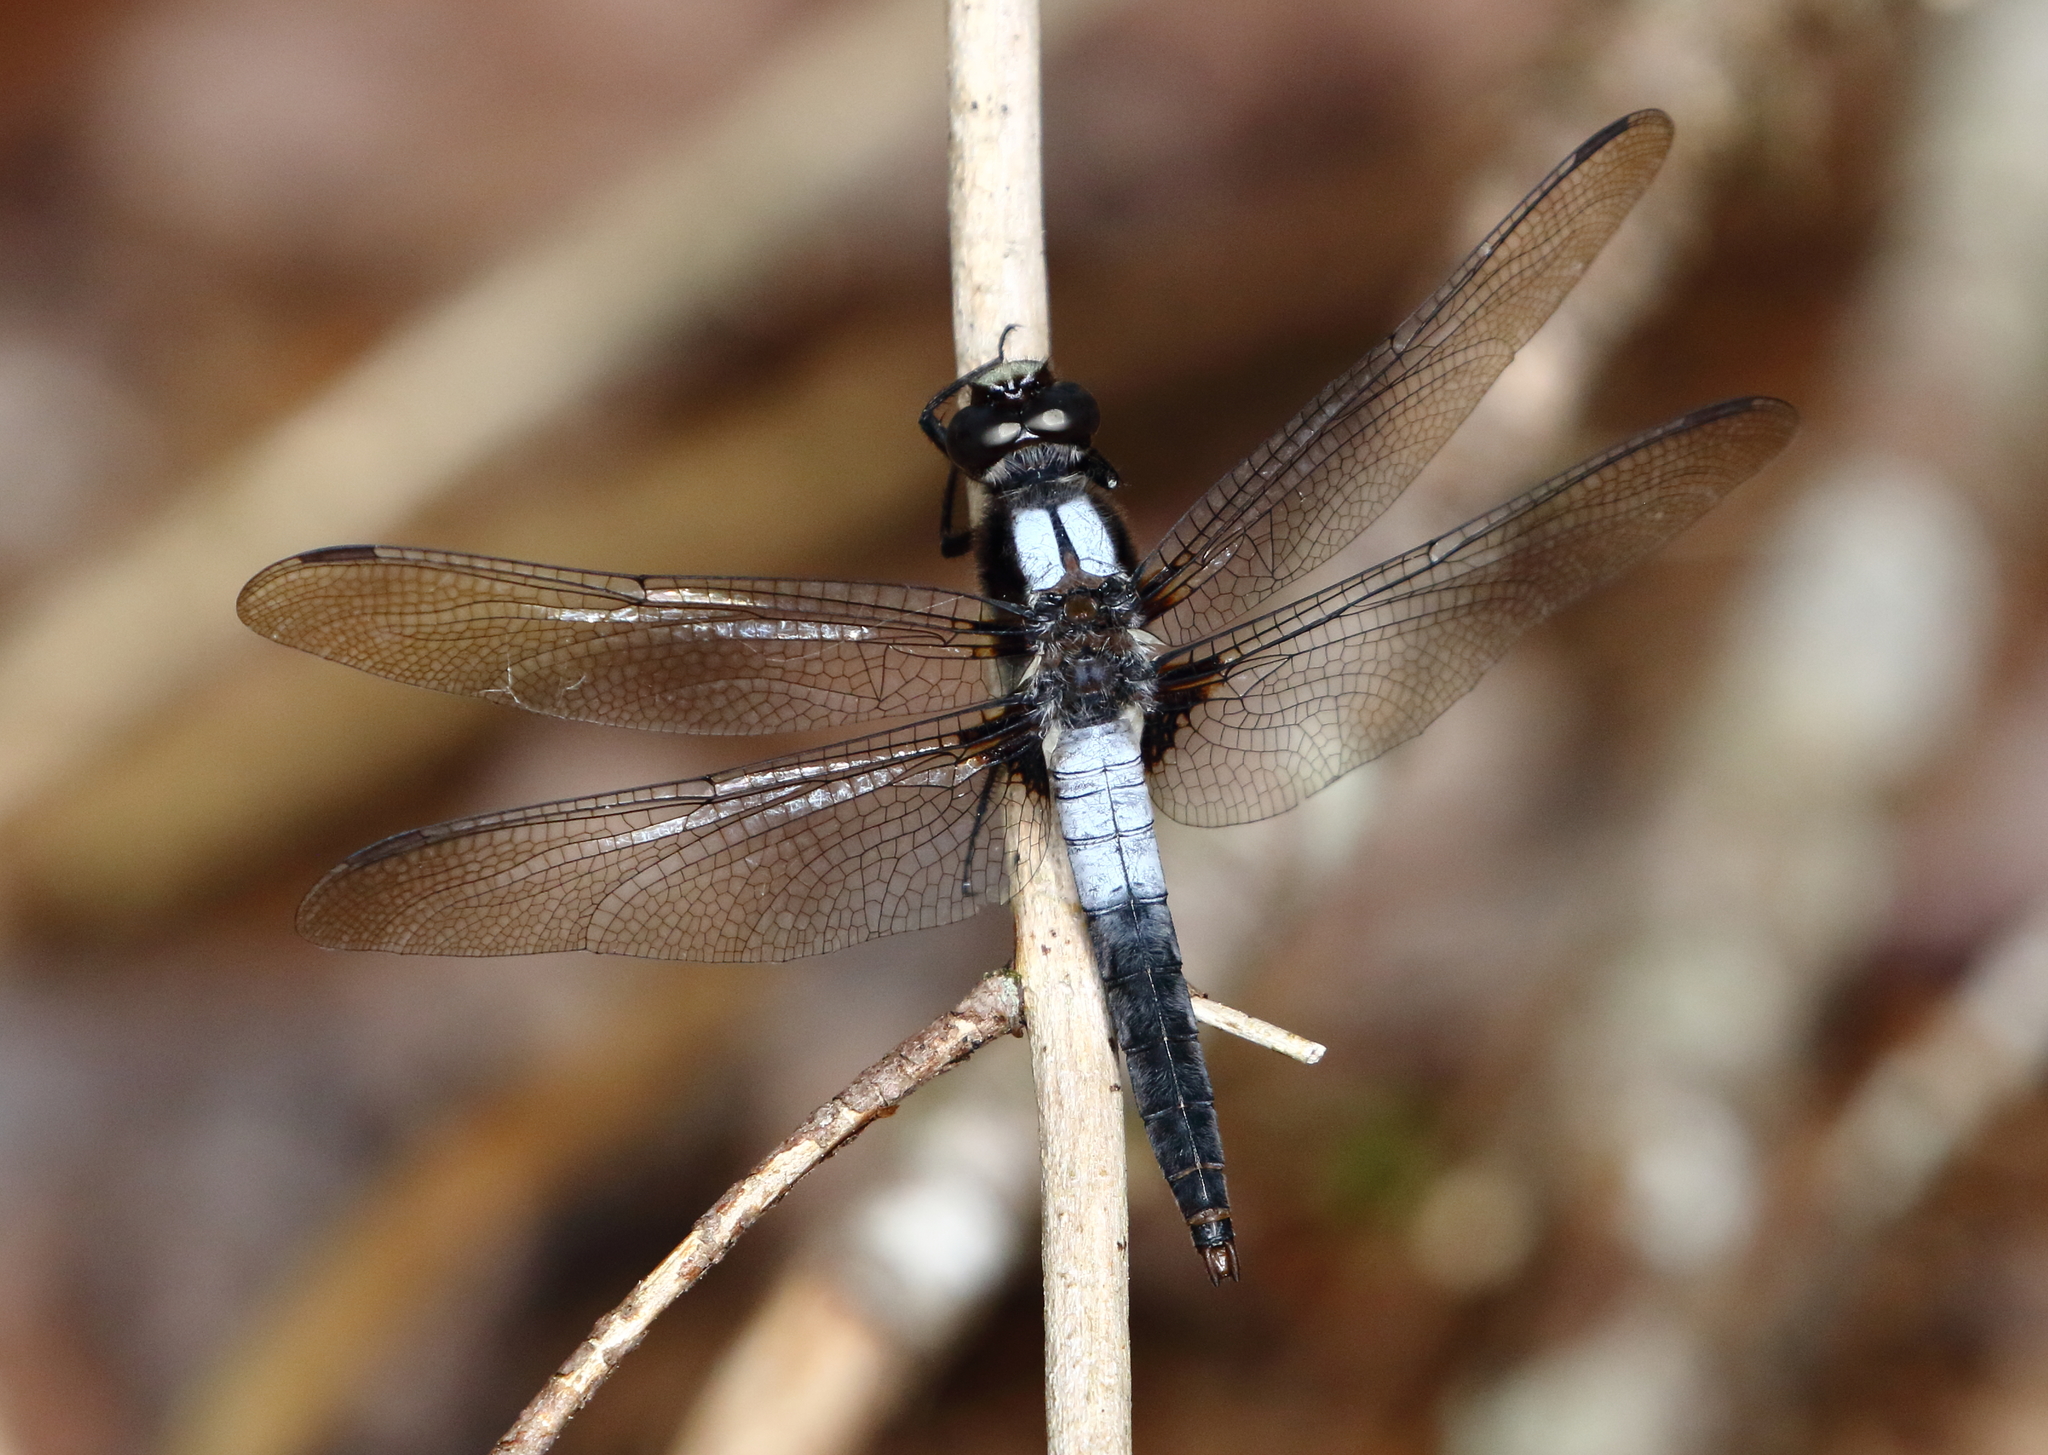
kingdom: Animalia
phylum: Arthropoda
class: Insecta
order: Odonata
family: Libellulidae
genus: Ladona
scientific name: Ladona julia
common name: Chalk-fronted corporal
